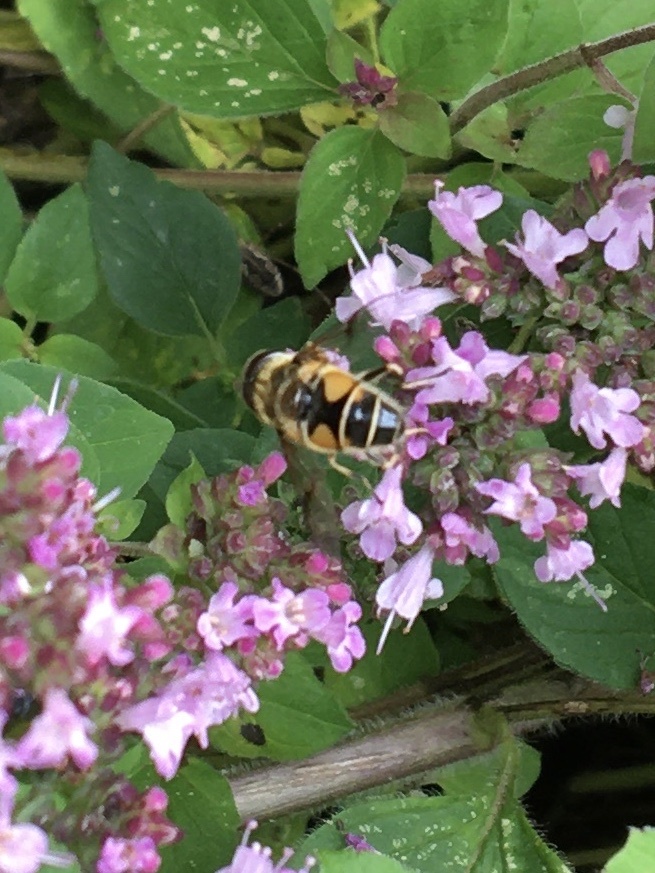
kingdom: Animalia
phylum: Arthropoda
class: Insecta
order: Diptera
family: Syrphidae
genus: Cheilosia
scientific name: Cheilosia morio
